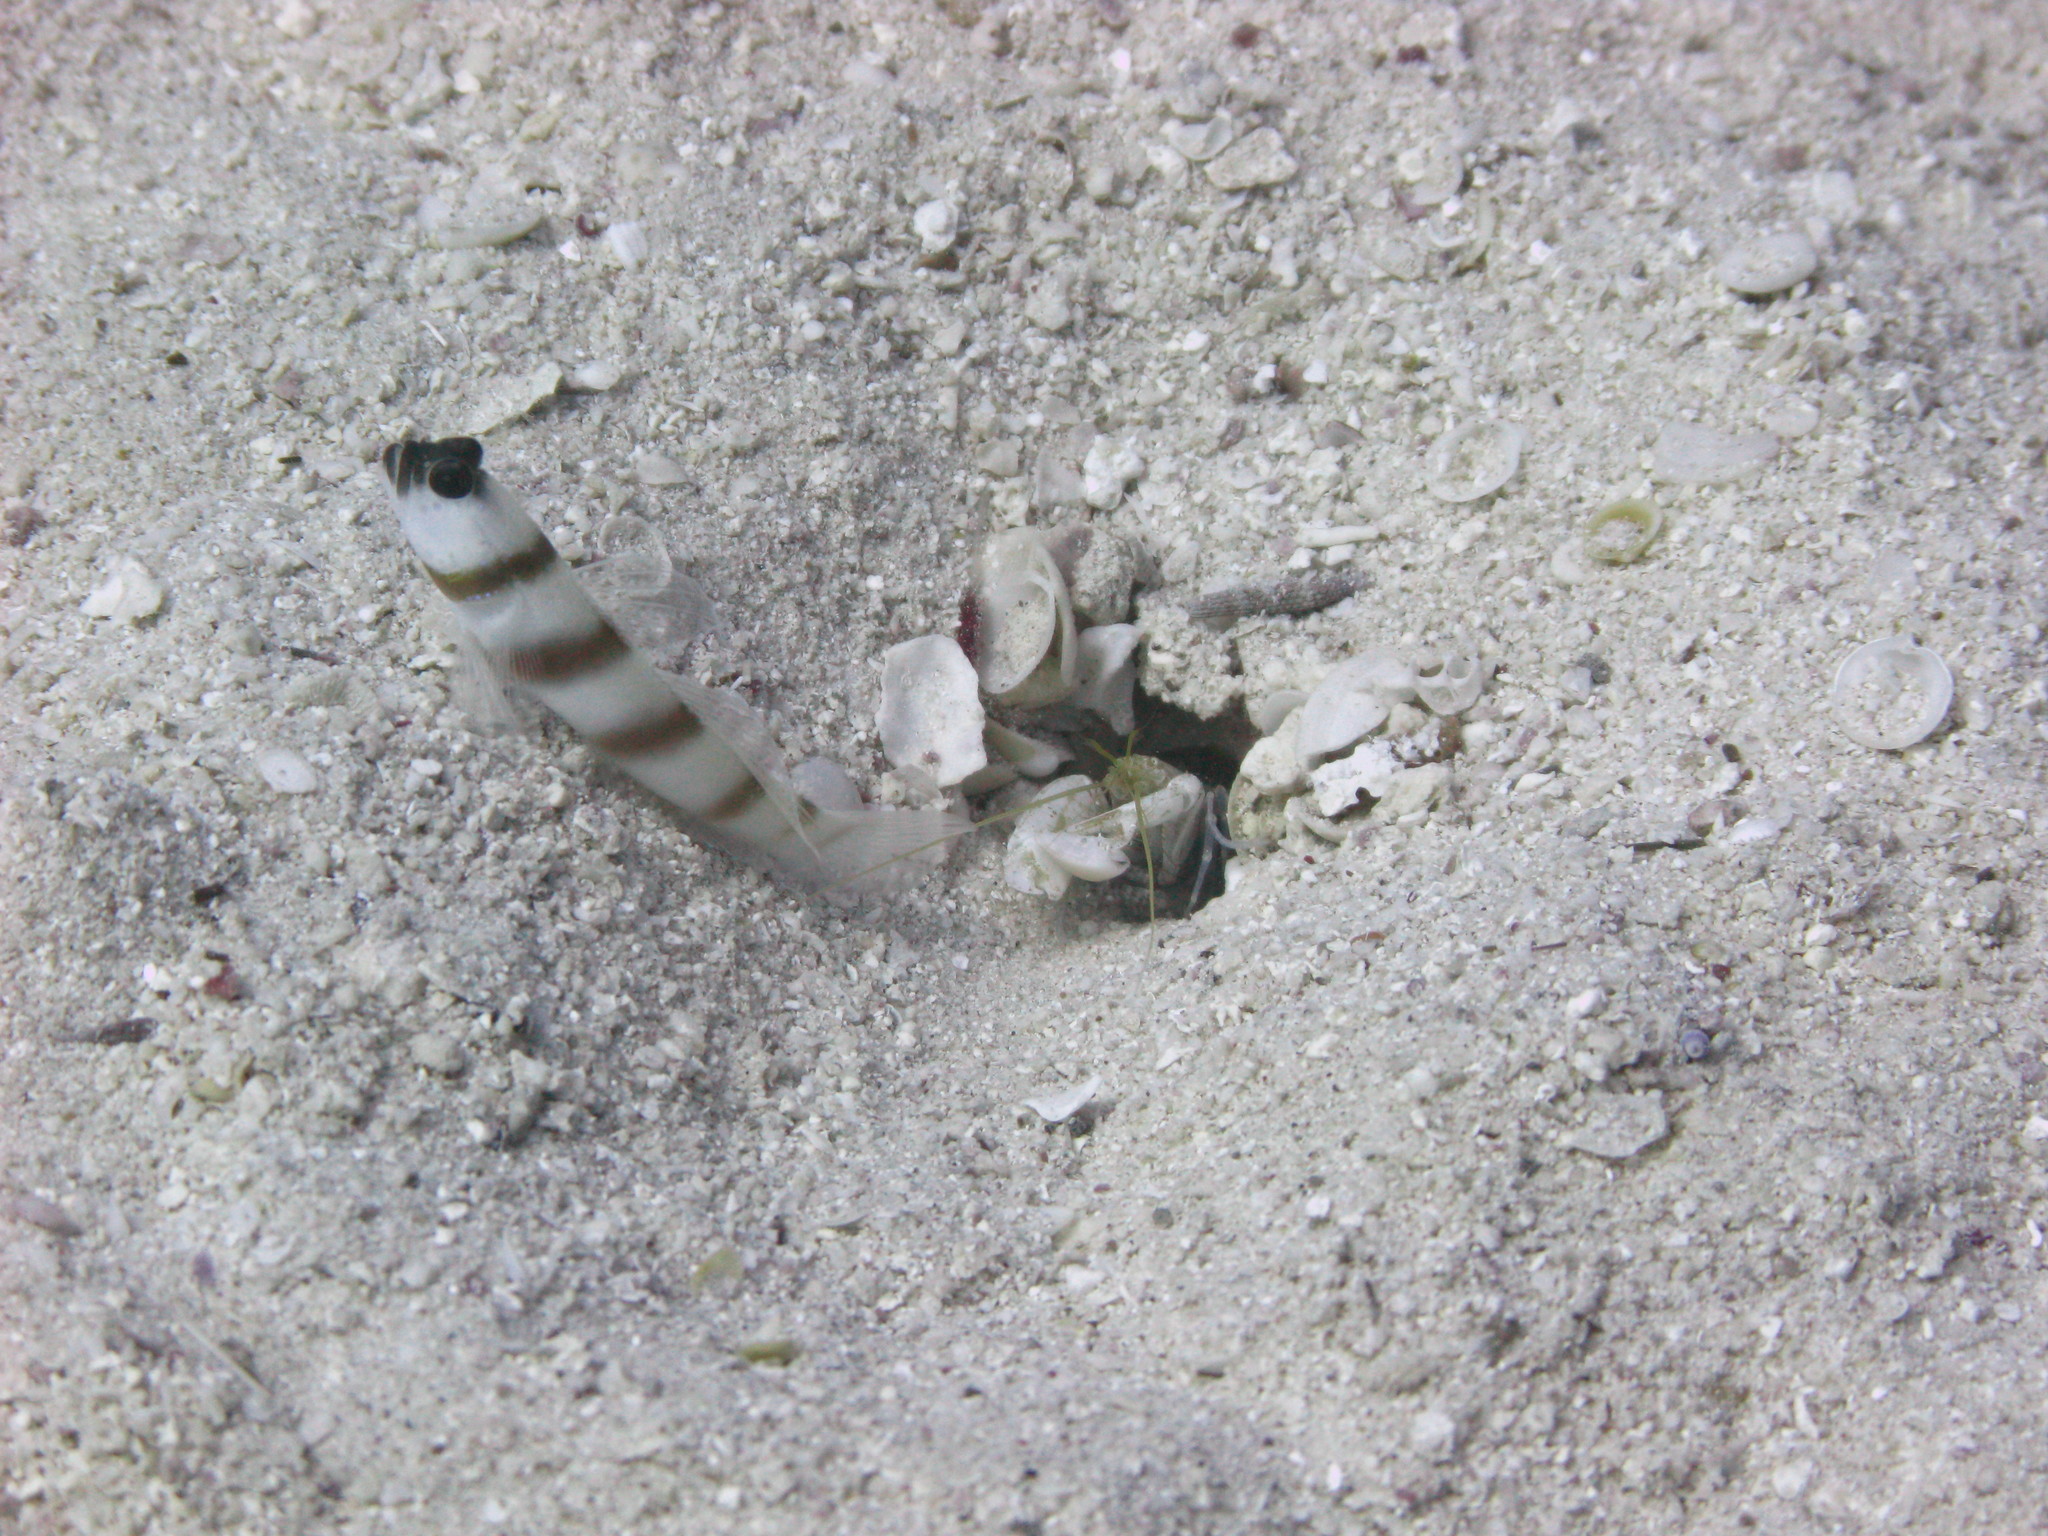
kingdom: Animalia
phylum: Chordata
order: Perciformes
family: Gobiidae
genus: Amblyeleotris
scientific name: Amblyeleotris steinitzi
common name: Steinitz' prawn-goby
